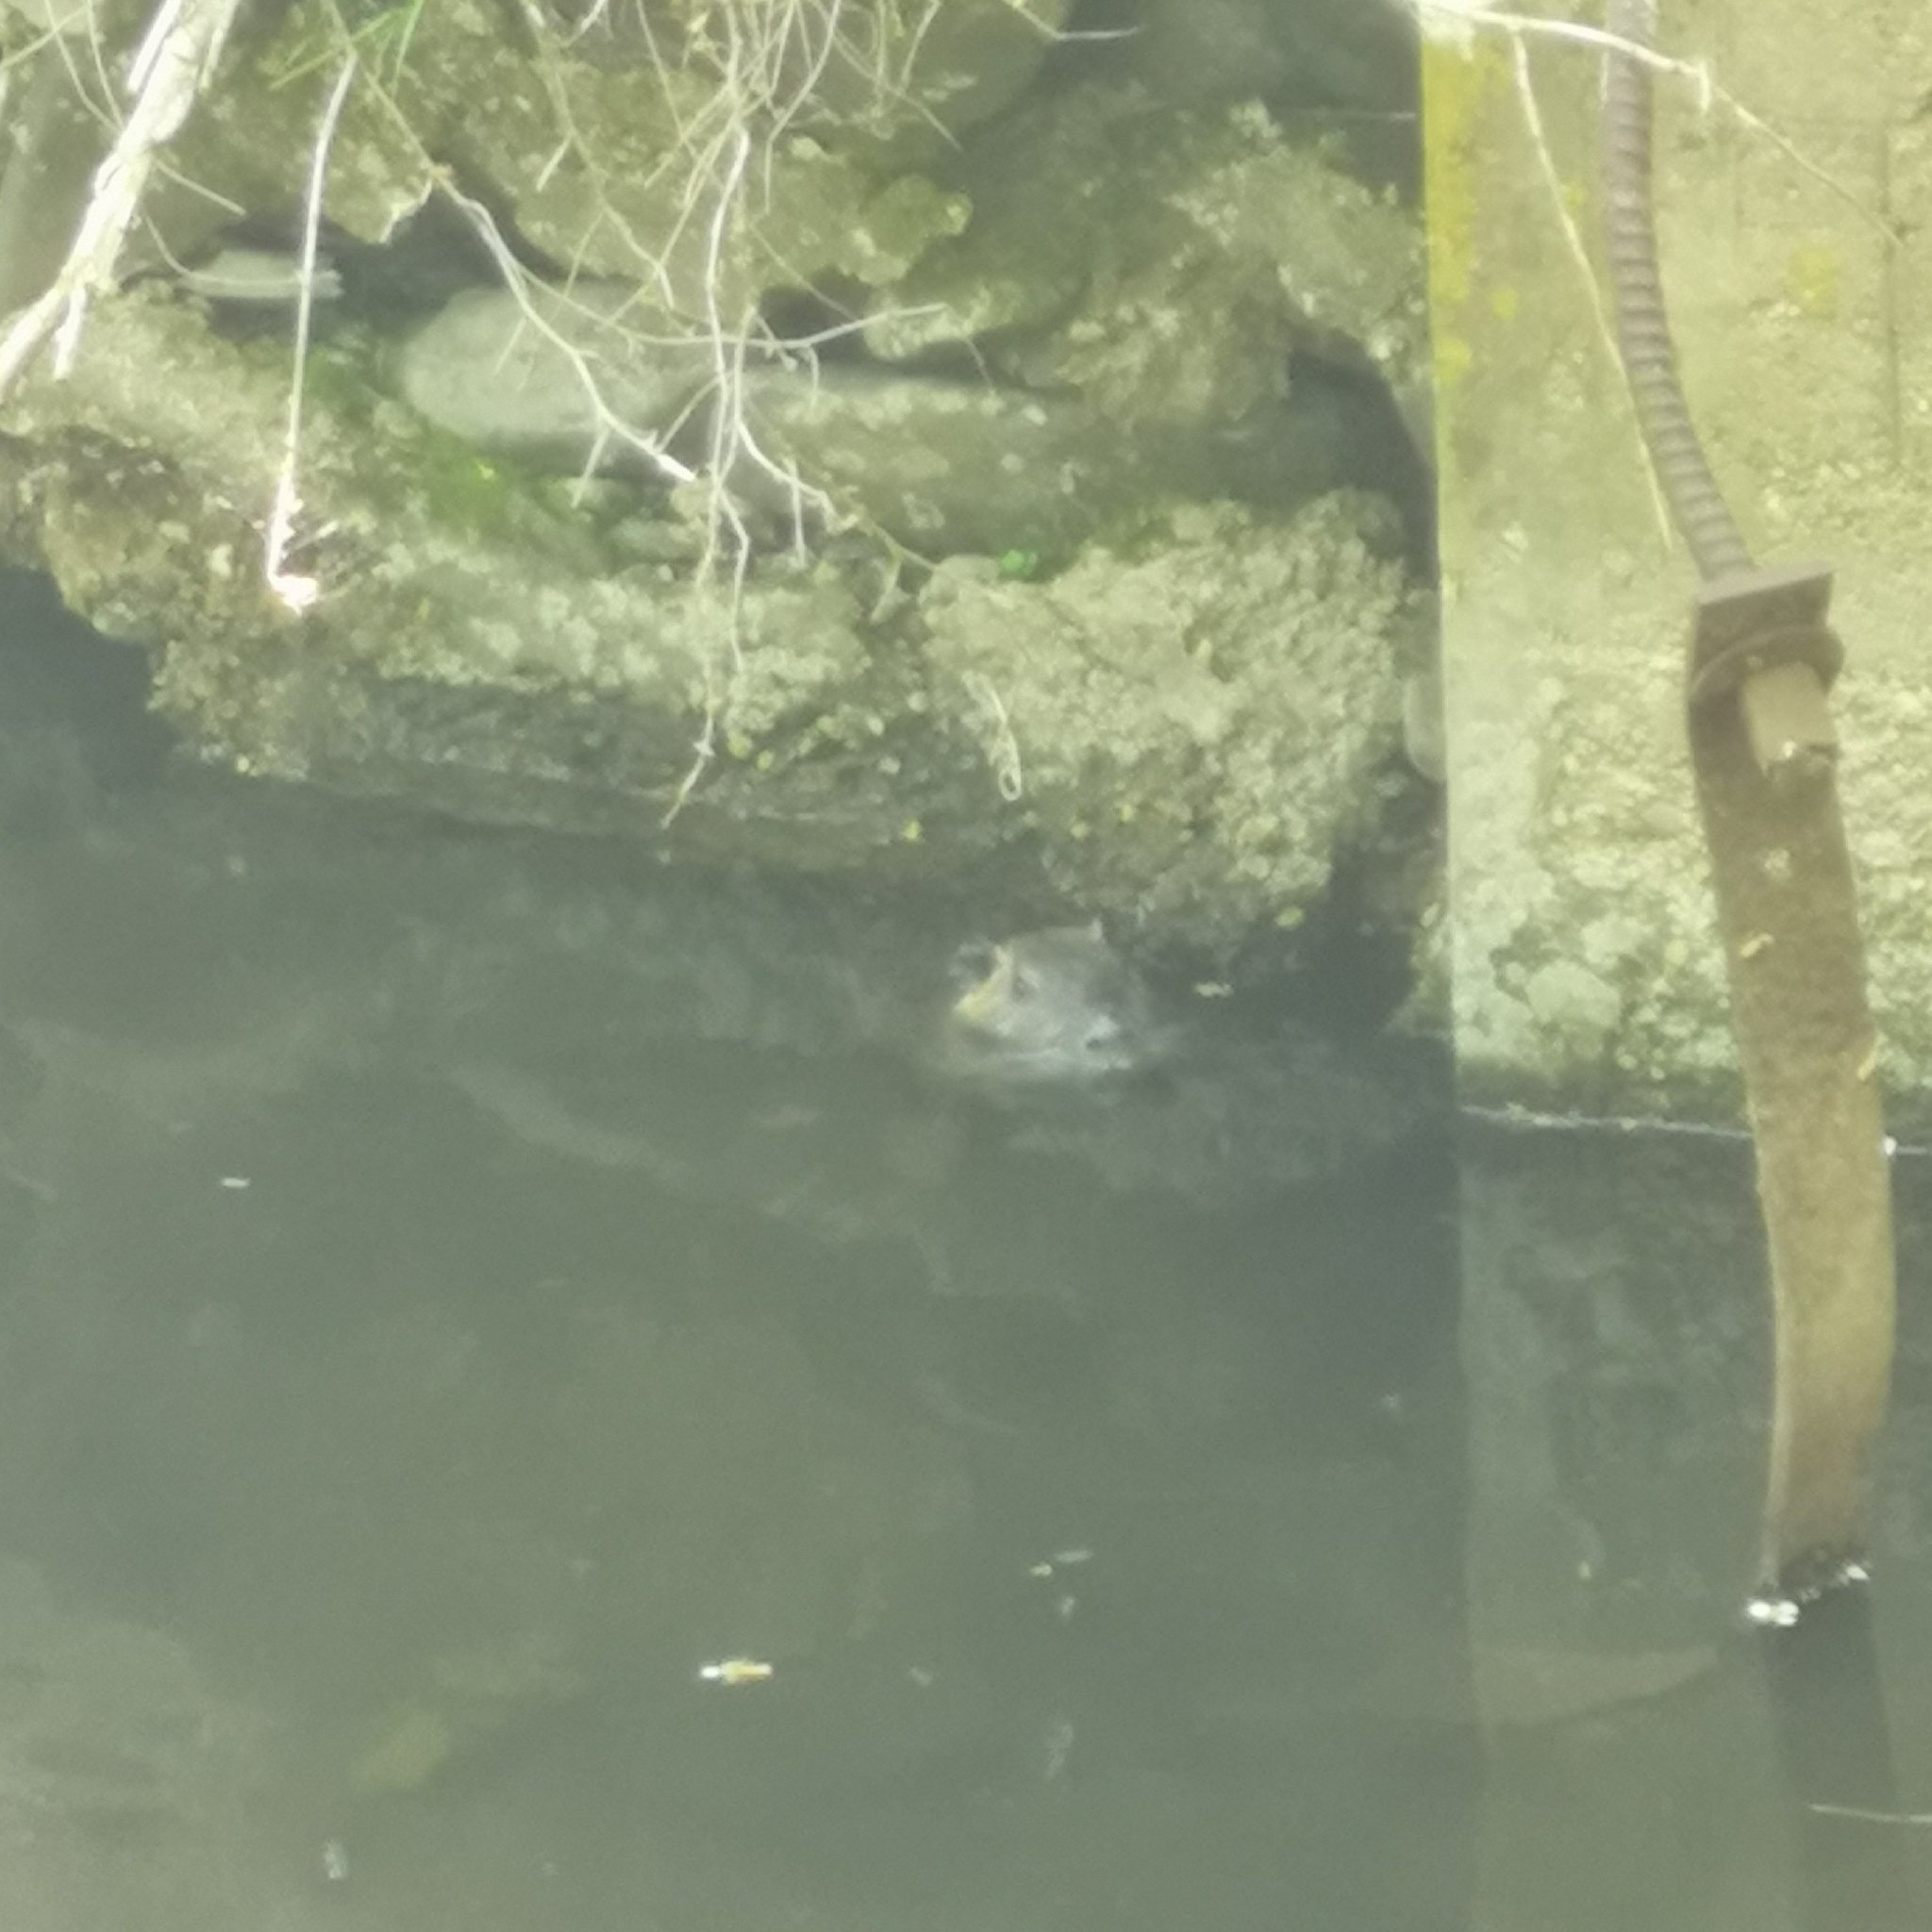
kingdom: Animalia
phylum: Chordata
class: Mammalia
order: Rodentia
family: Myocastoridae
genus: Myocastor
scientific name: Myocastor coypus
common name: Coypu
